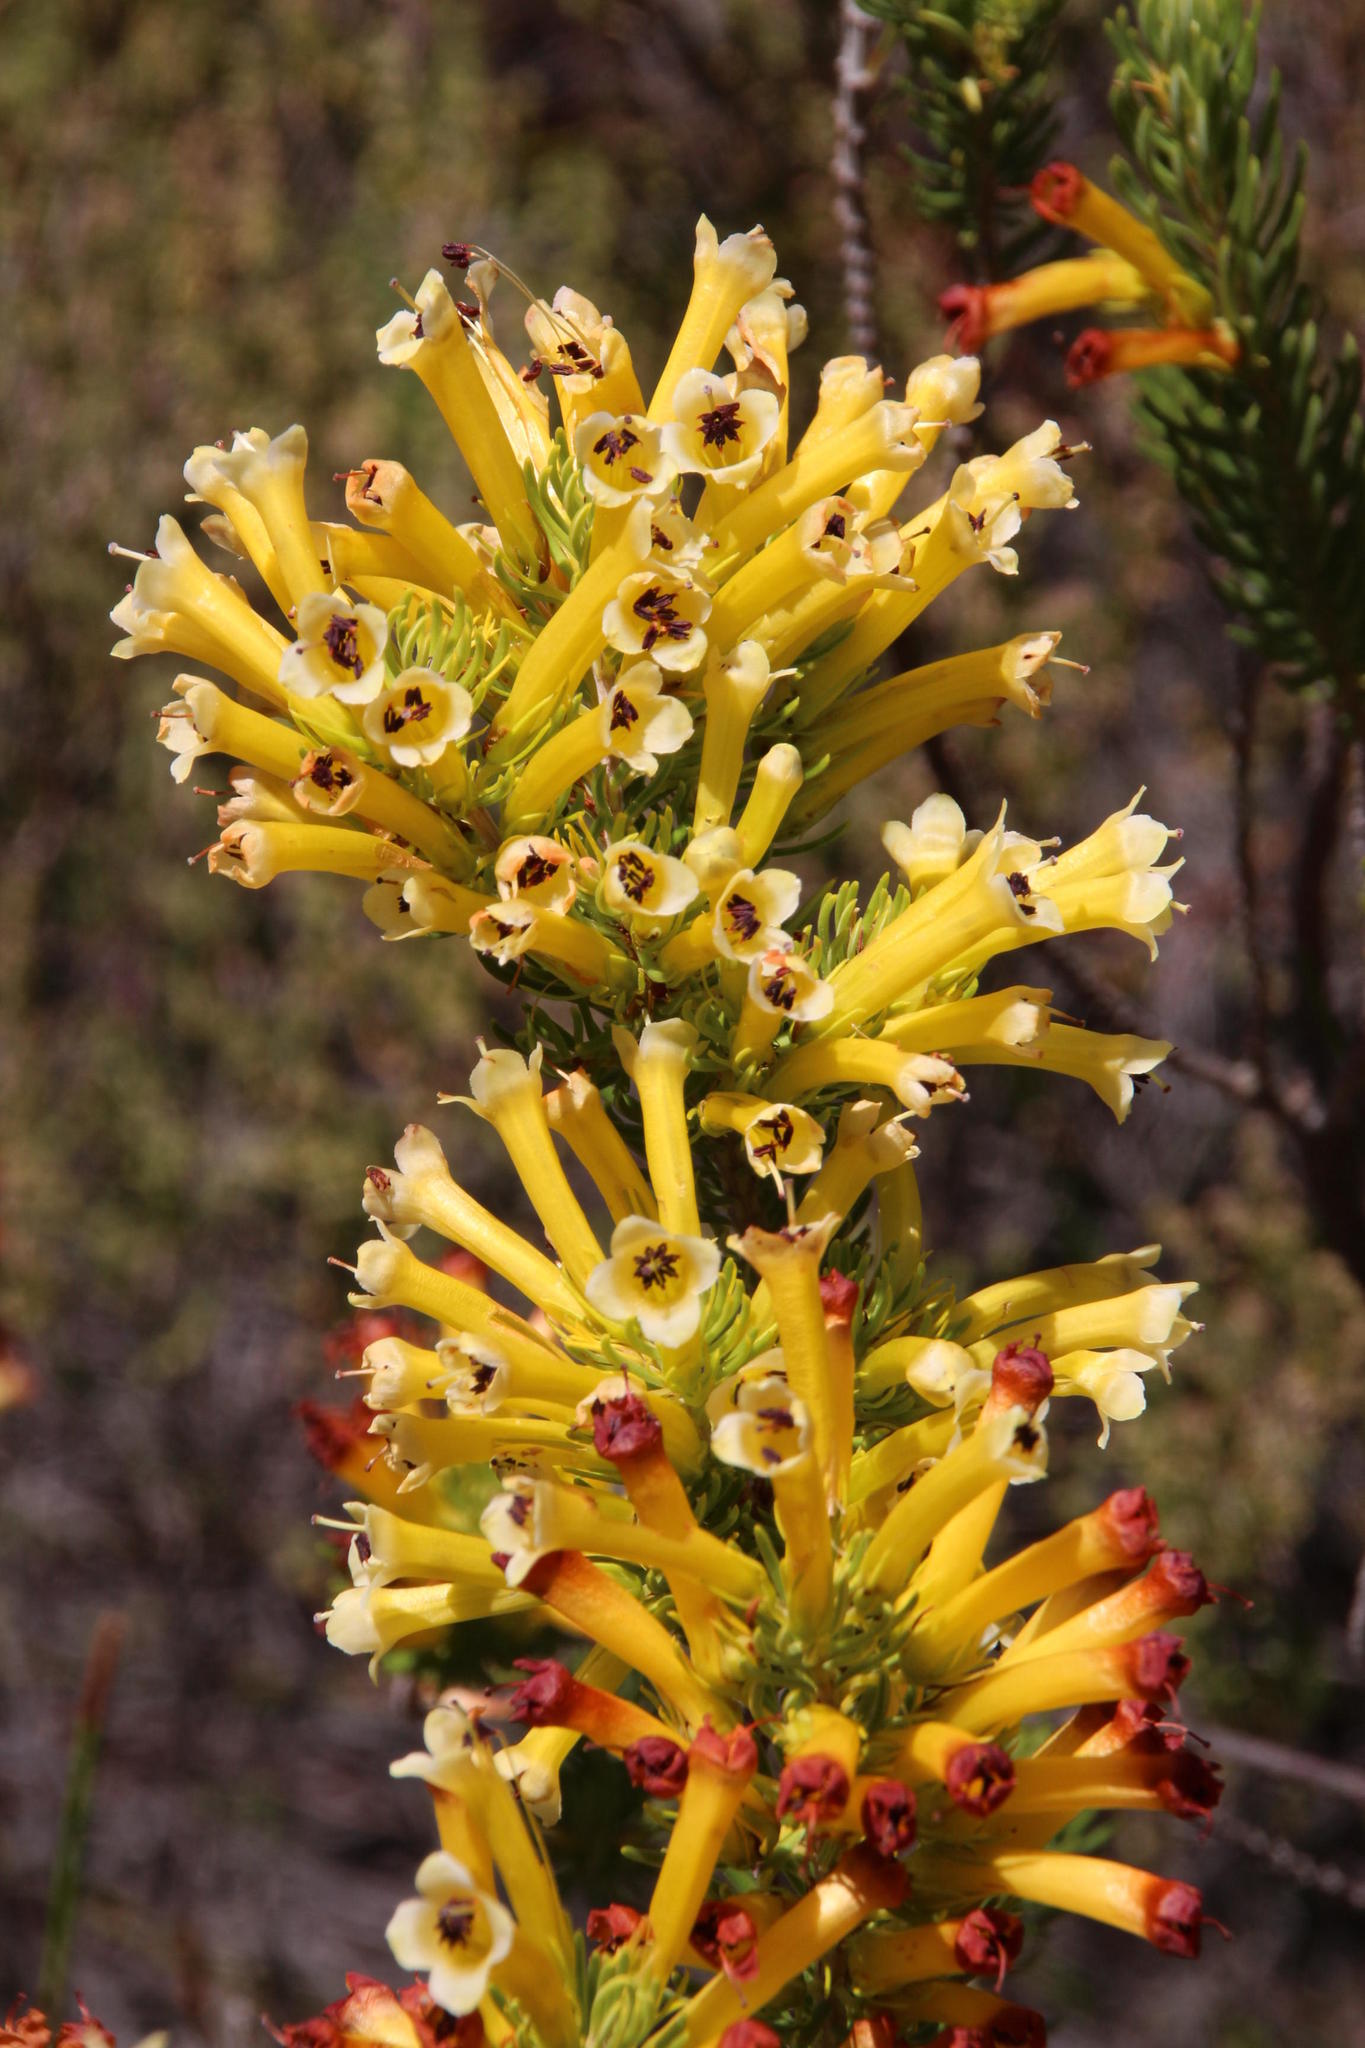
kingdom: Plantae
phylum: Tracheophyta
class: Magnoliopsida
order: Ericales
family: Ericaceae
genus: Erica
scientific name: Erica pinea
